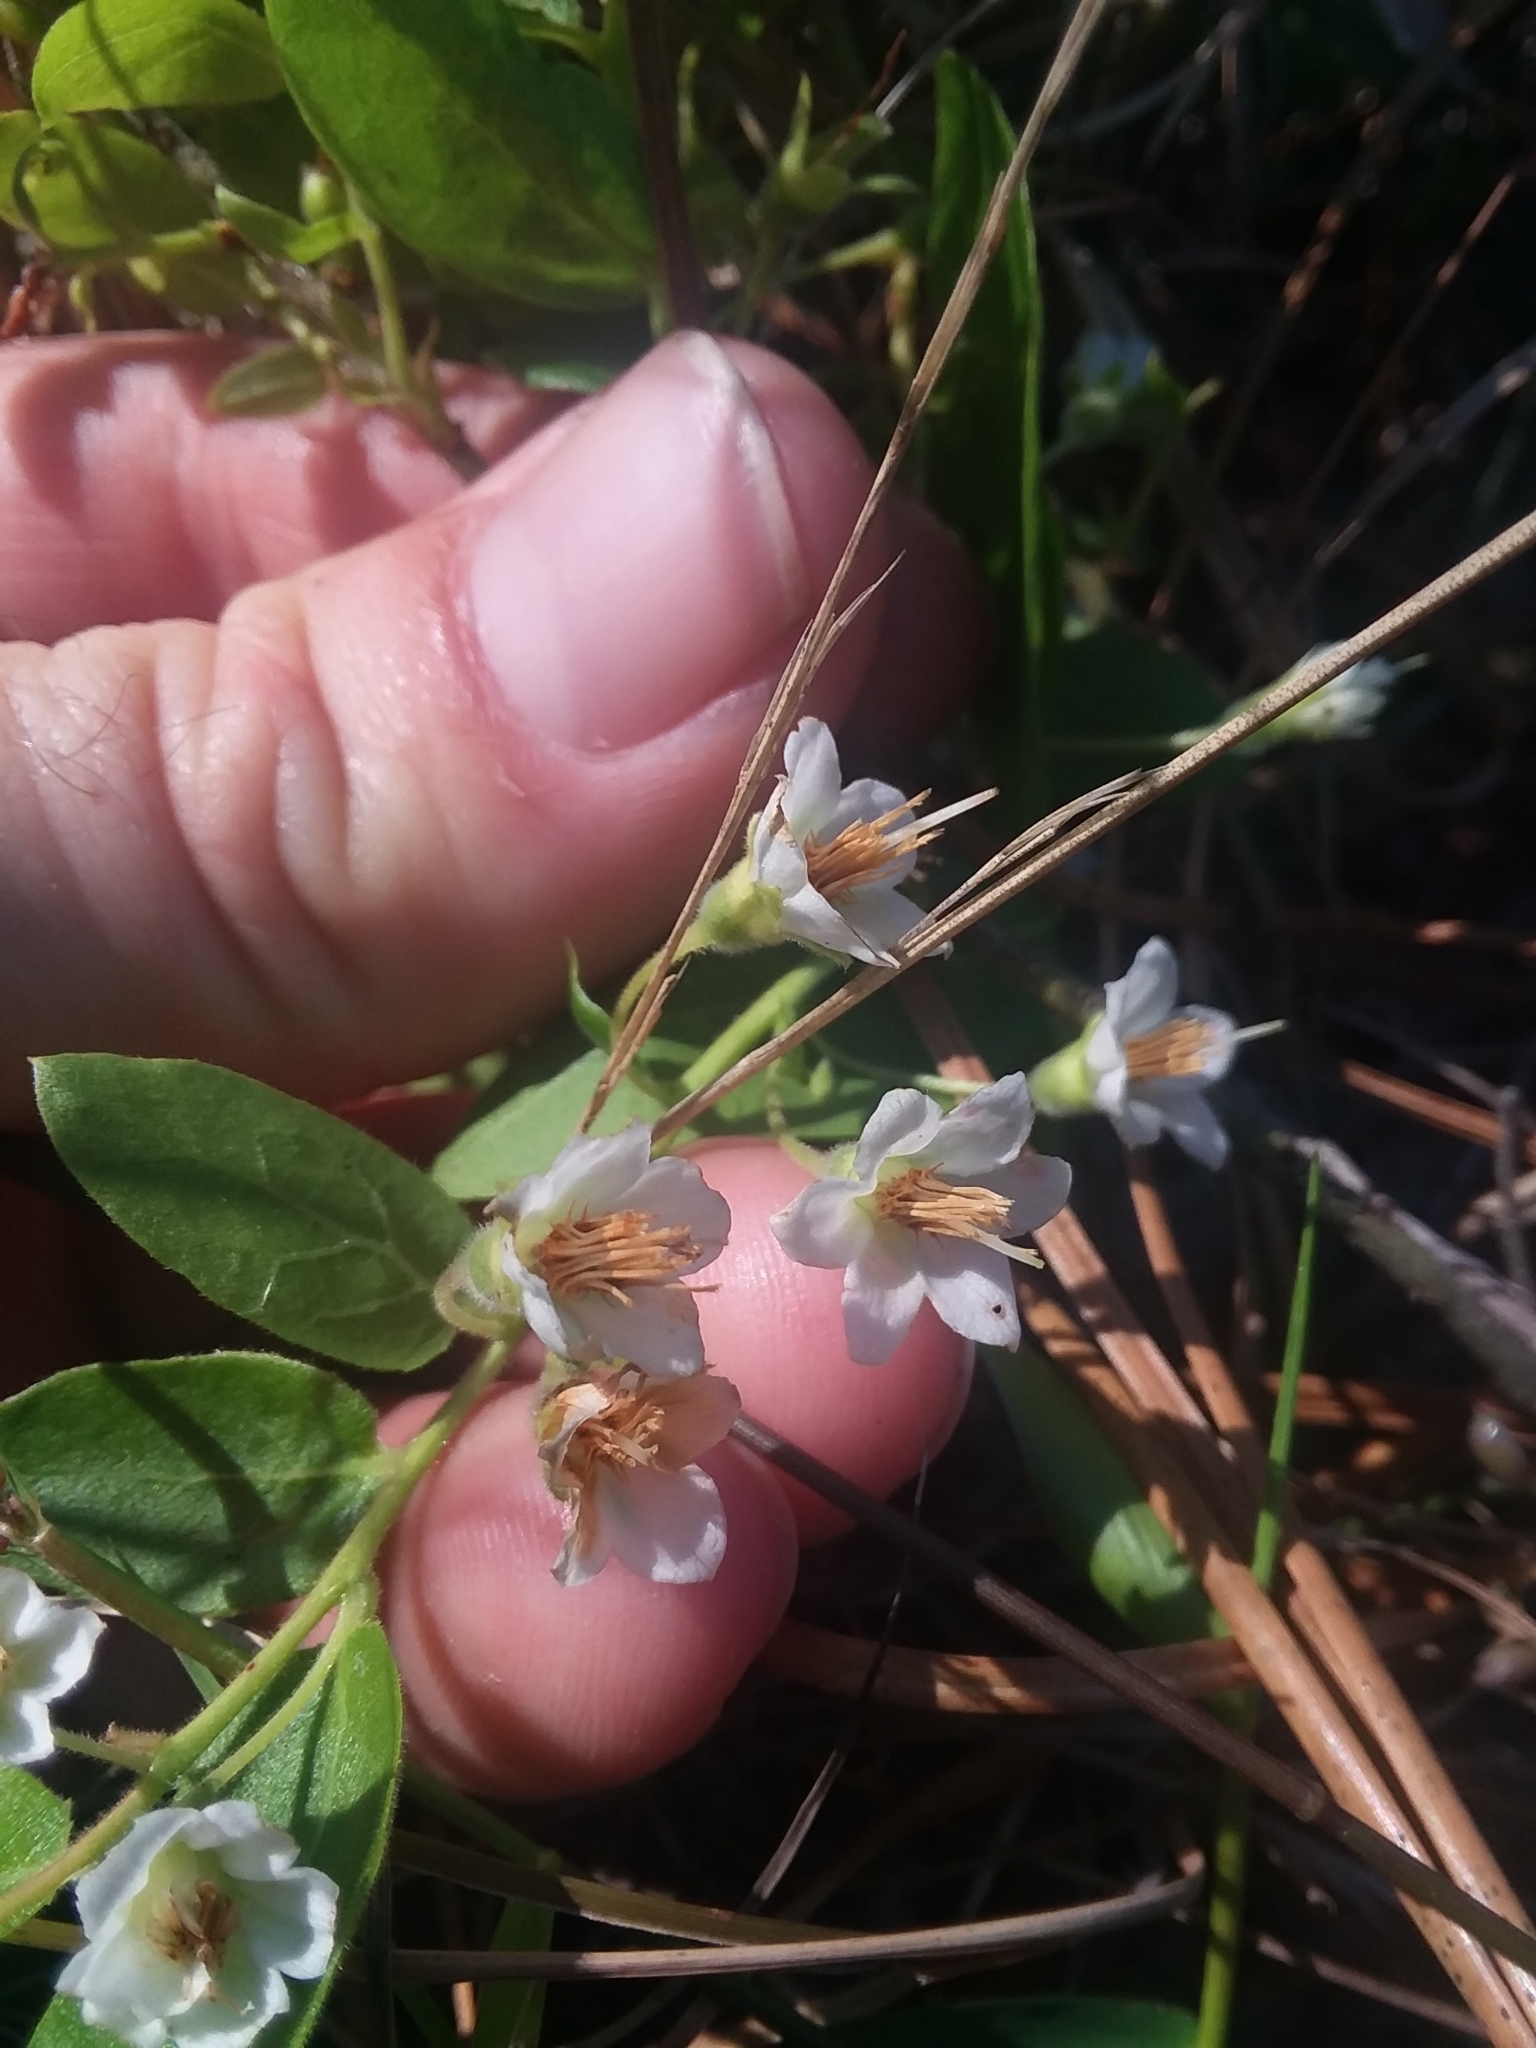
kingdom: Plantae
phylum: Tracheophyta
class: Magnoliopsida
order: Ericales
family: Ericaceae
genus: Vaccinium
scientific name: Vaccinium stamineum
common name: Deerberry
